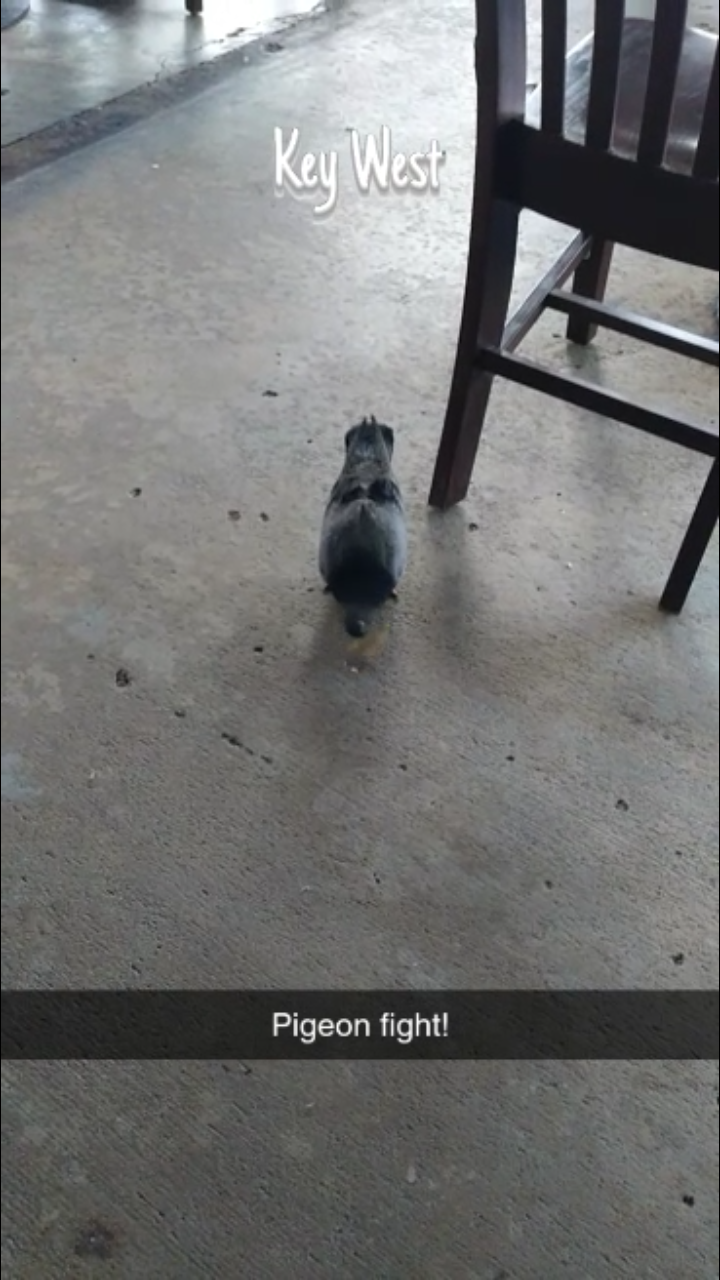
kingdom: Animalia
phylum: Chordata
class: Aves
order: Columbiformes
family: Columbidae
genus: Columba
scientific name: Columba livia
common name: Rock pigeon
